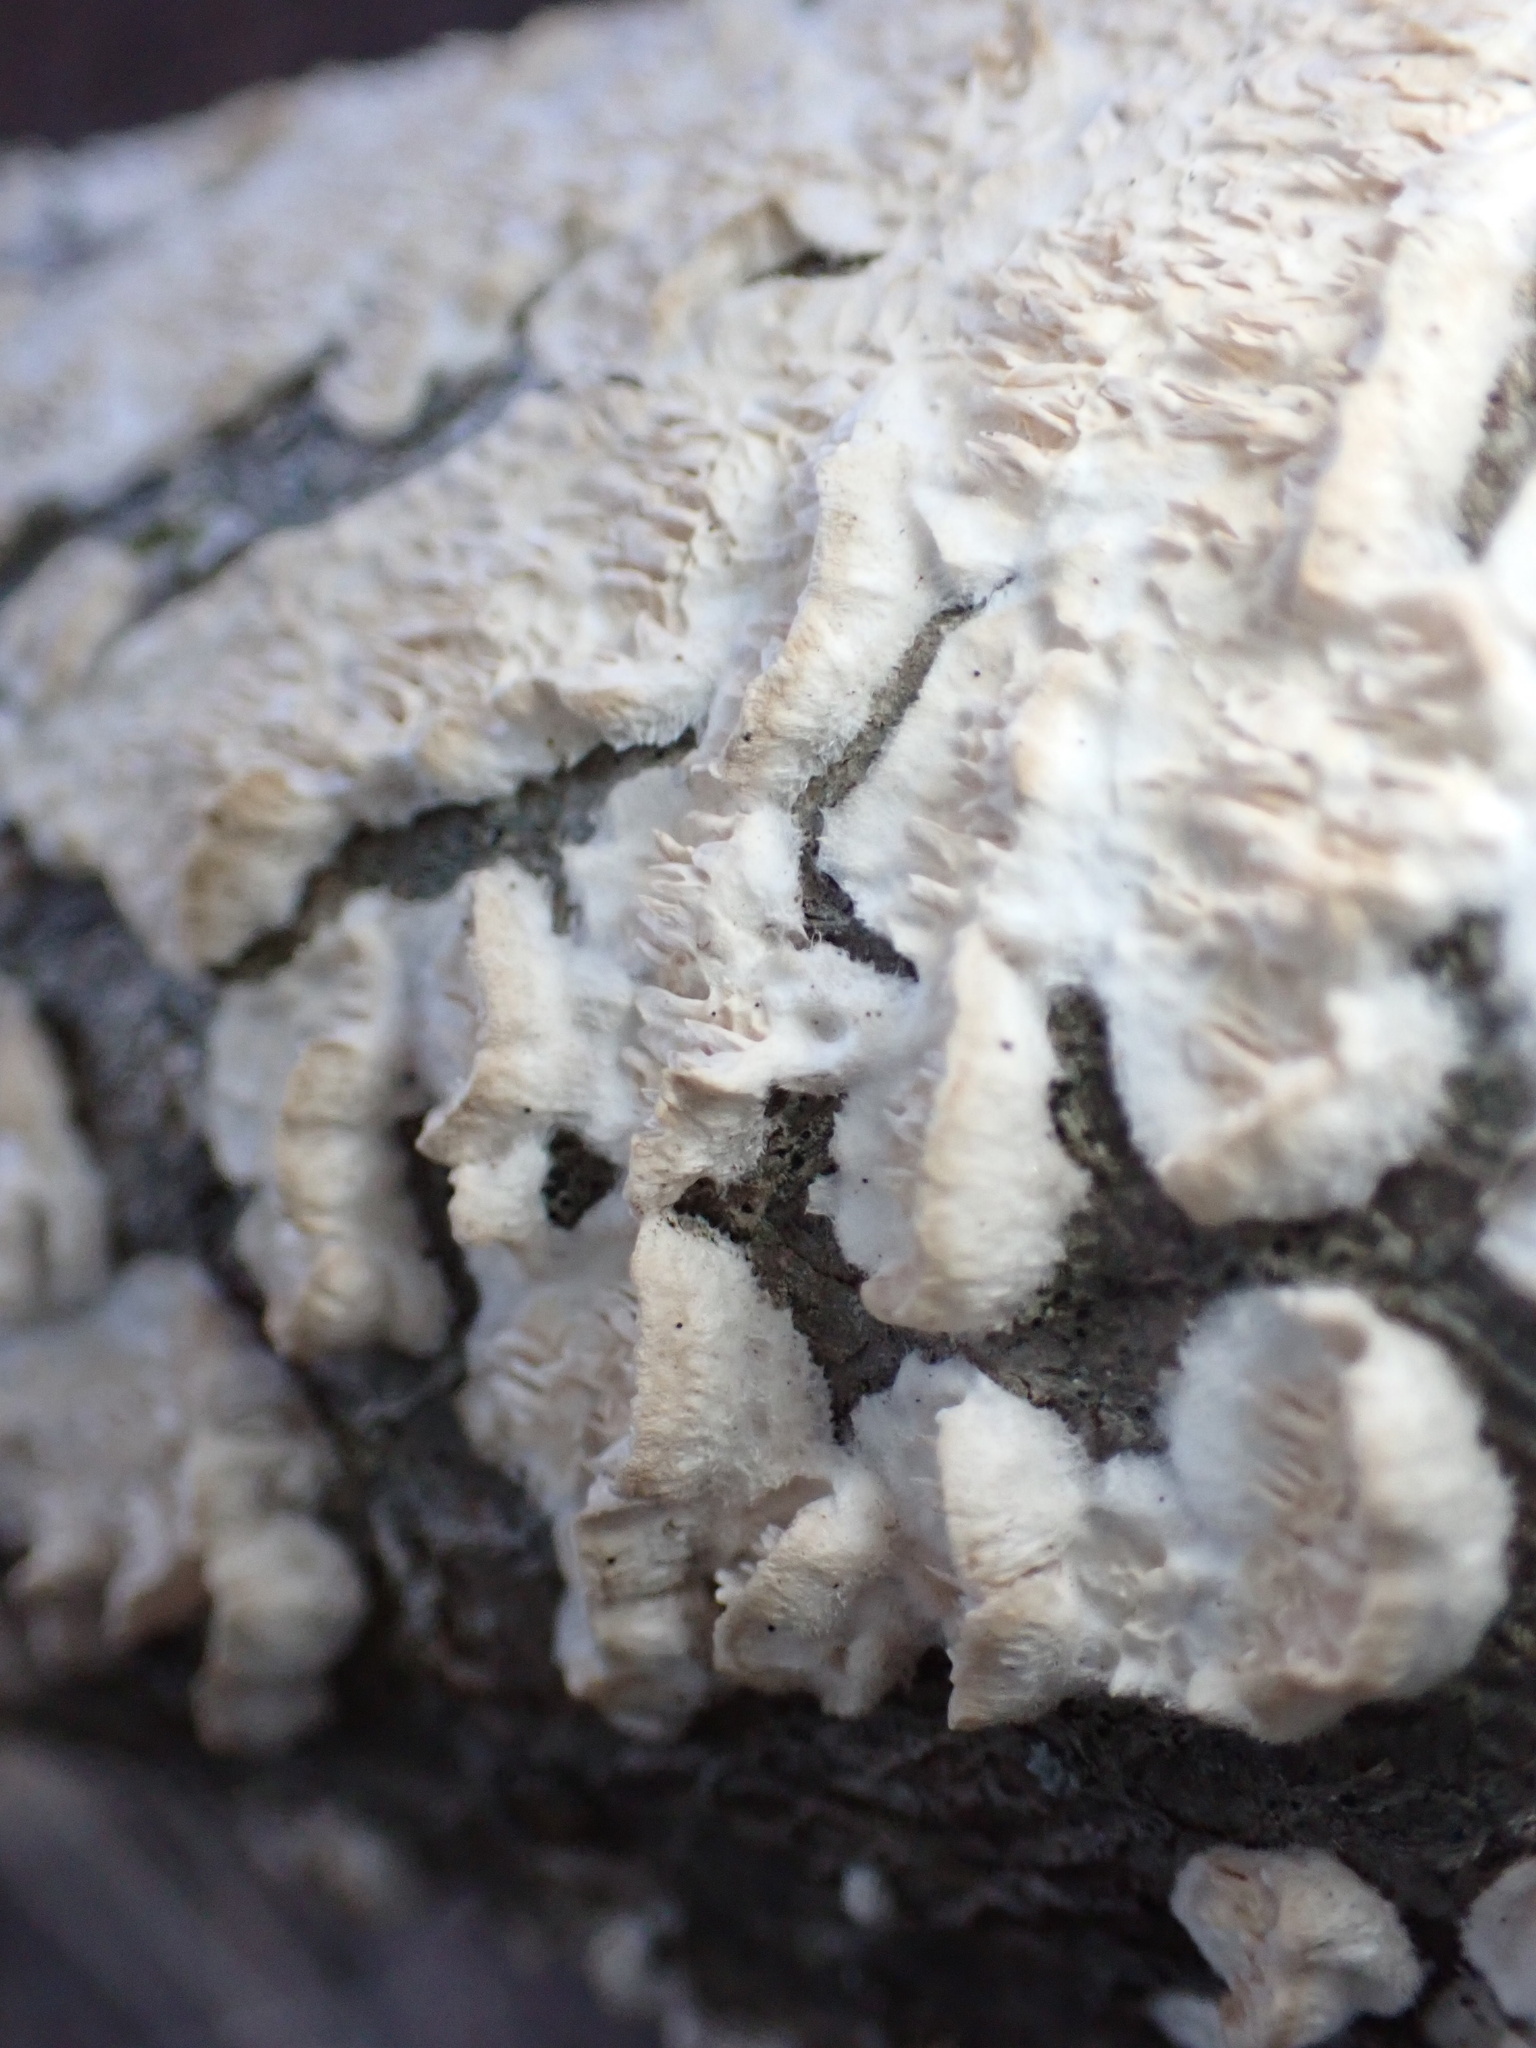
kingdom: Fungi
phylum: Basidiomycota
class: Agaricomycetes
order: Polyporales
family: Irpicaceae
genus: Irpex
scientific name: Irpex lacteus
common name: Milk-white toothed polypore
